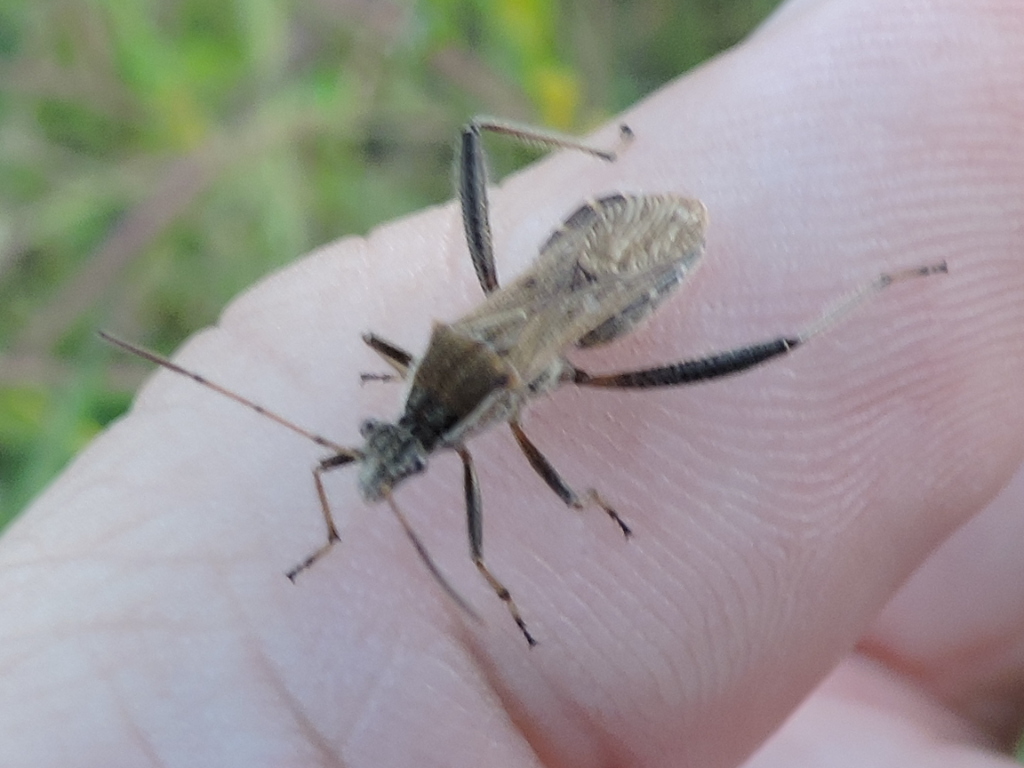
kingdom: Animalia
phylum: Arthropoda
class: Insecta
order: Hemiptera
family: Alydidae
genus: Alydus
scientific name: Alydus pilosulus
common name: Broad-headed bug
